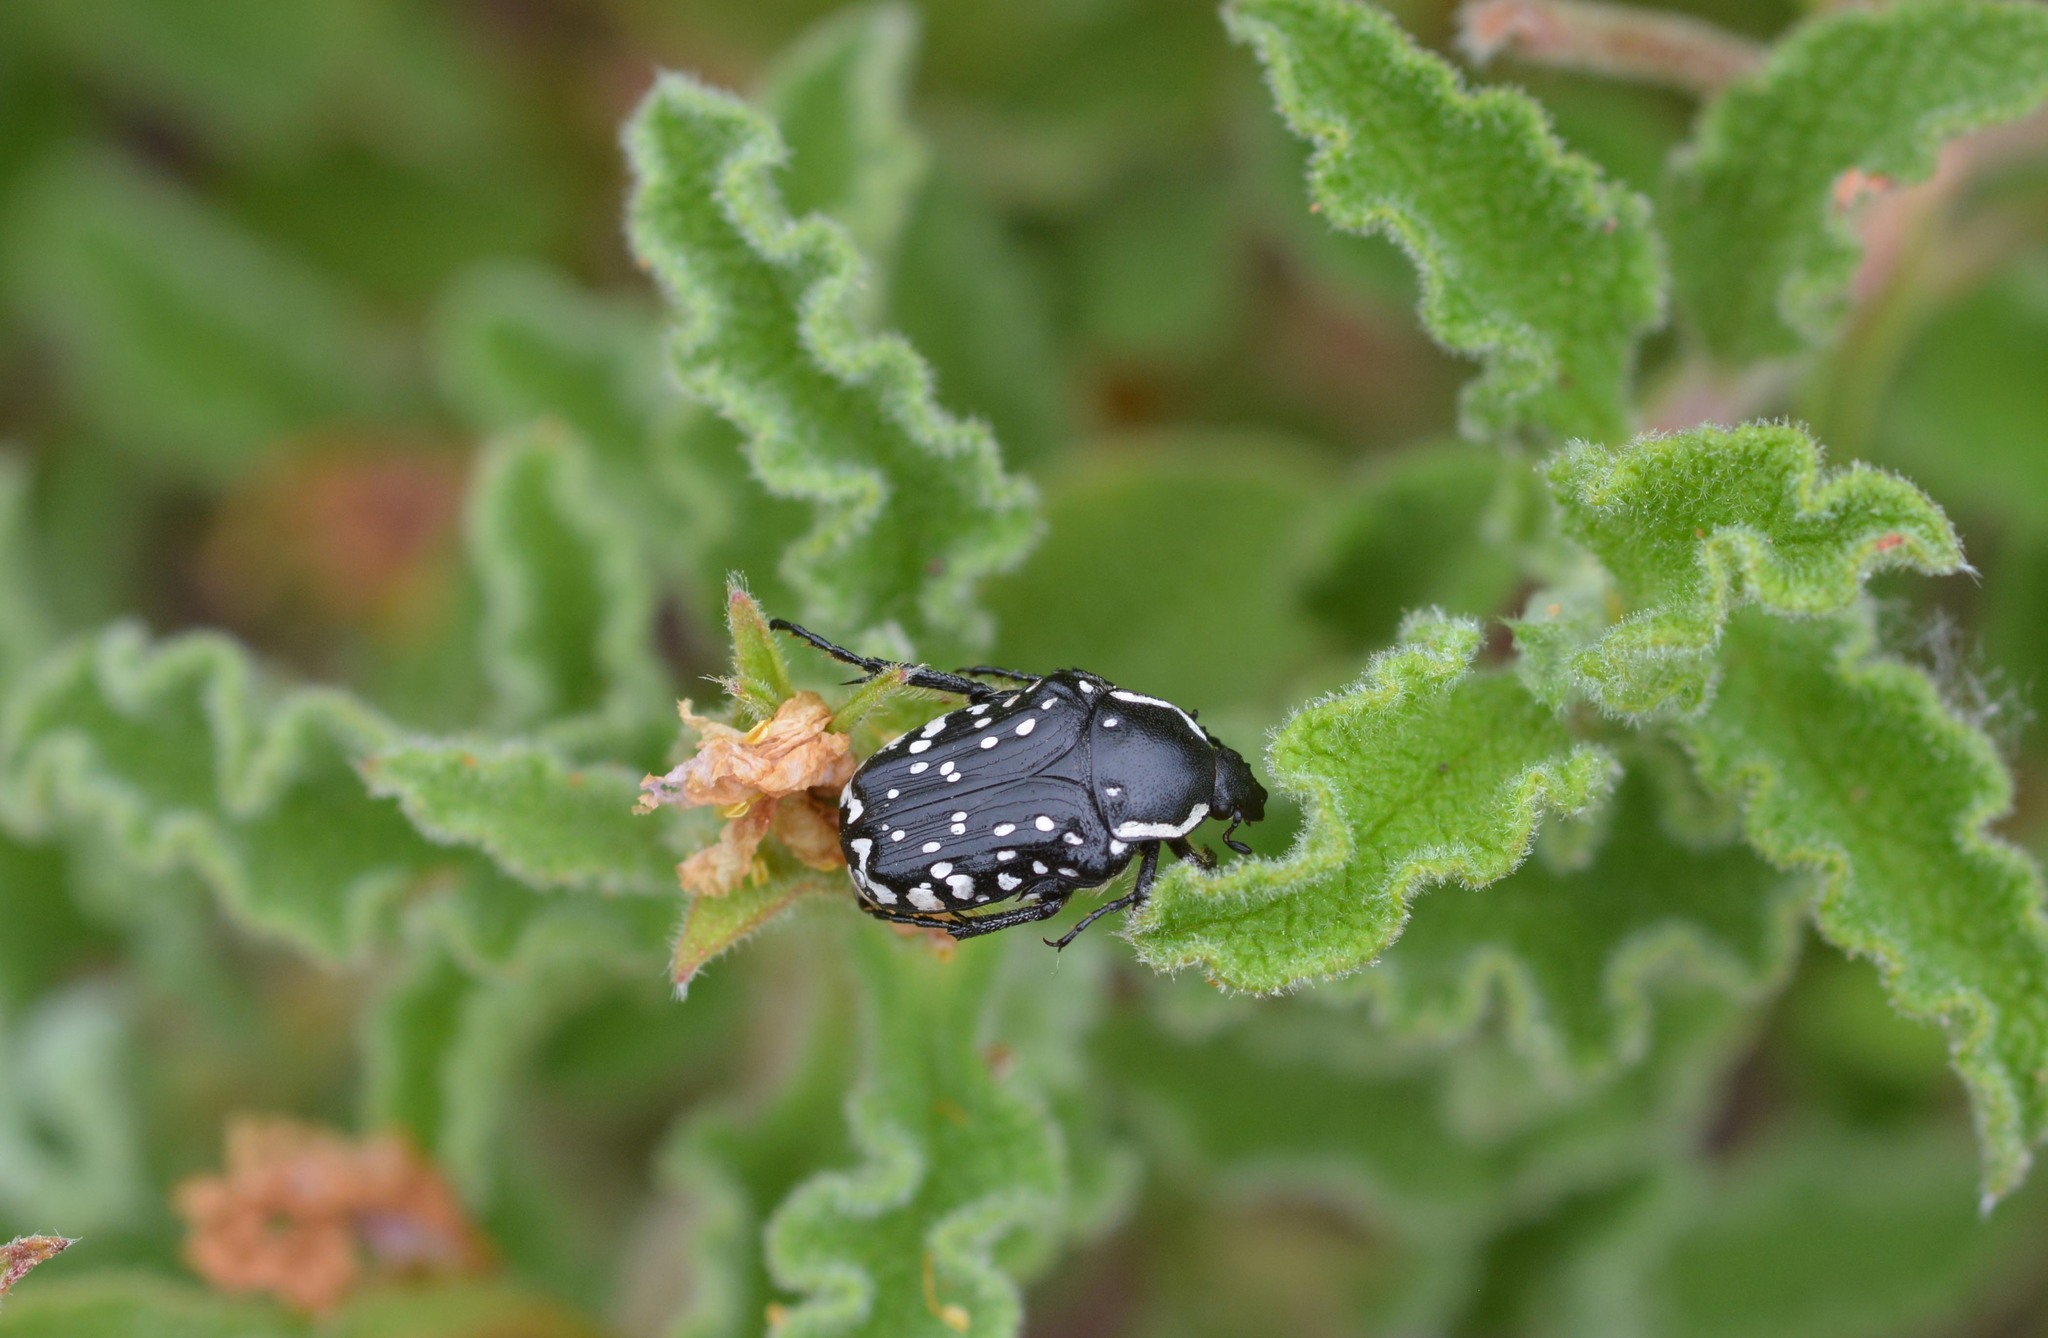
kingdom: Animalia
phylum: Arthropoda
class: Insecta
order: Coleoptera
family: Scarabaeidae
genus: Oxythyrea
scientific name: Oxythyrea cinctella
